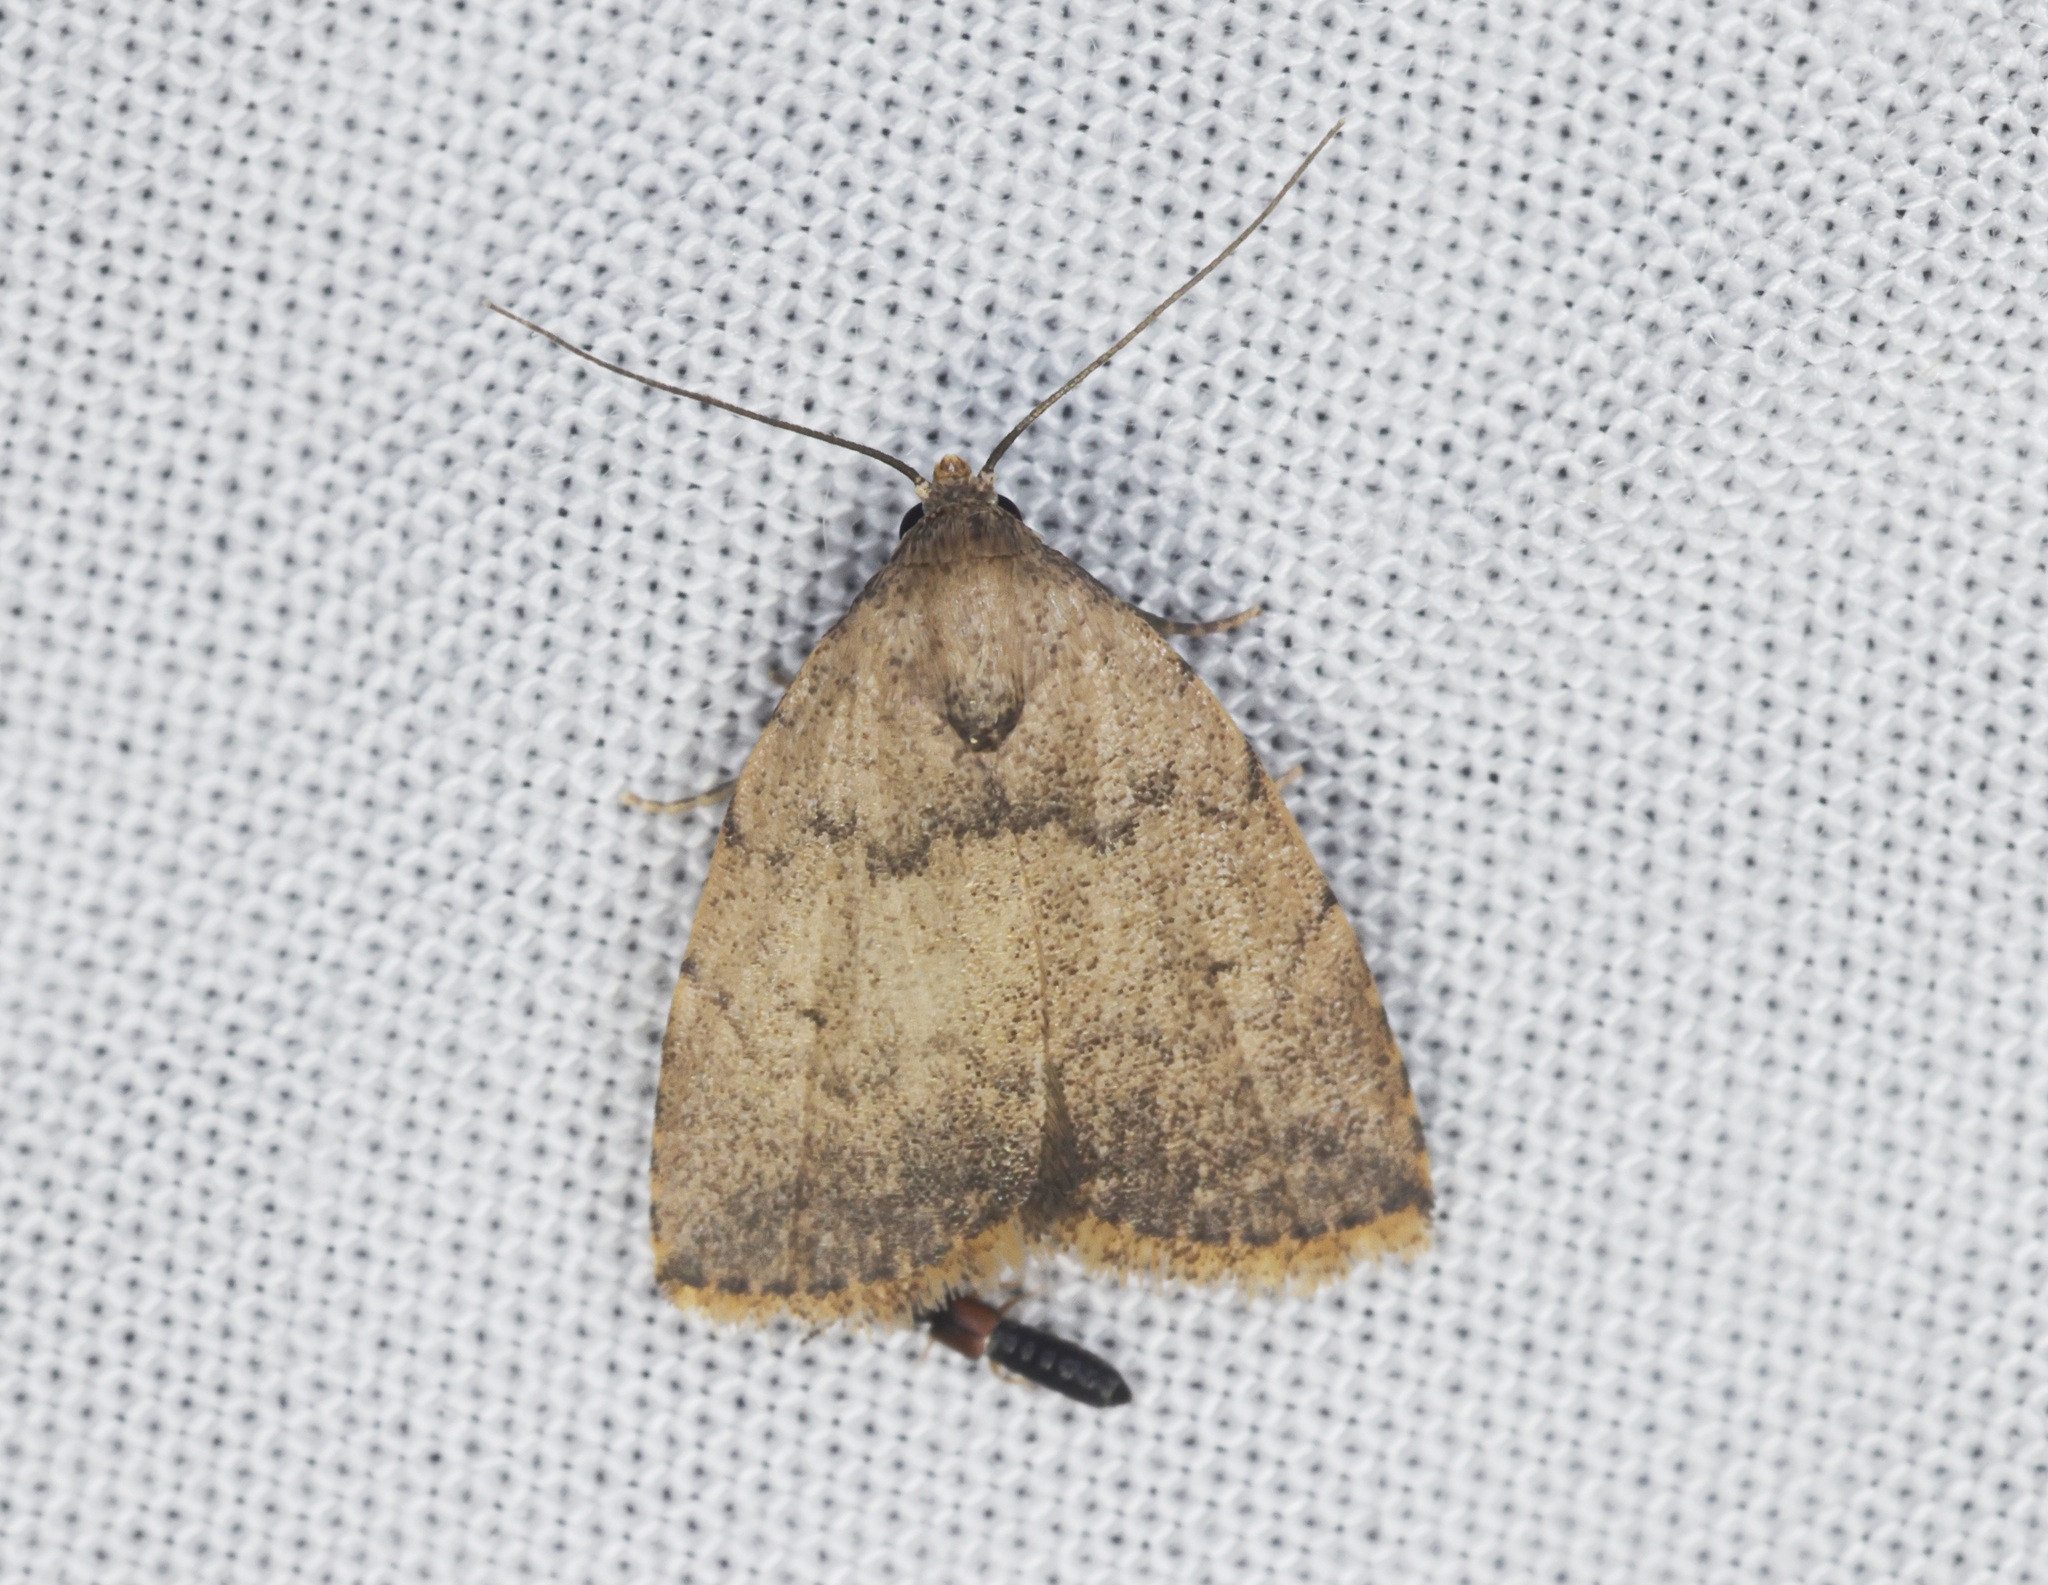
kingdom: Animalia
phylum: Arthropoda
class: Insecta
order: Lepidoptera
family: Erebidae
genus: Anachrostis
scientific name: Anachrostis
